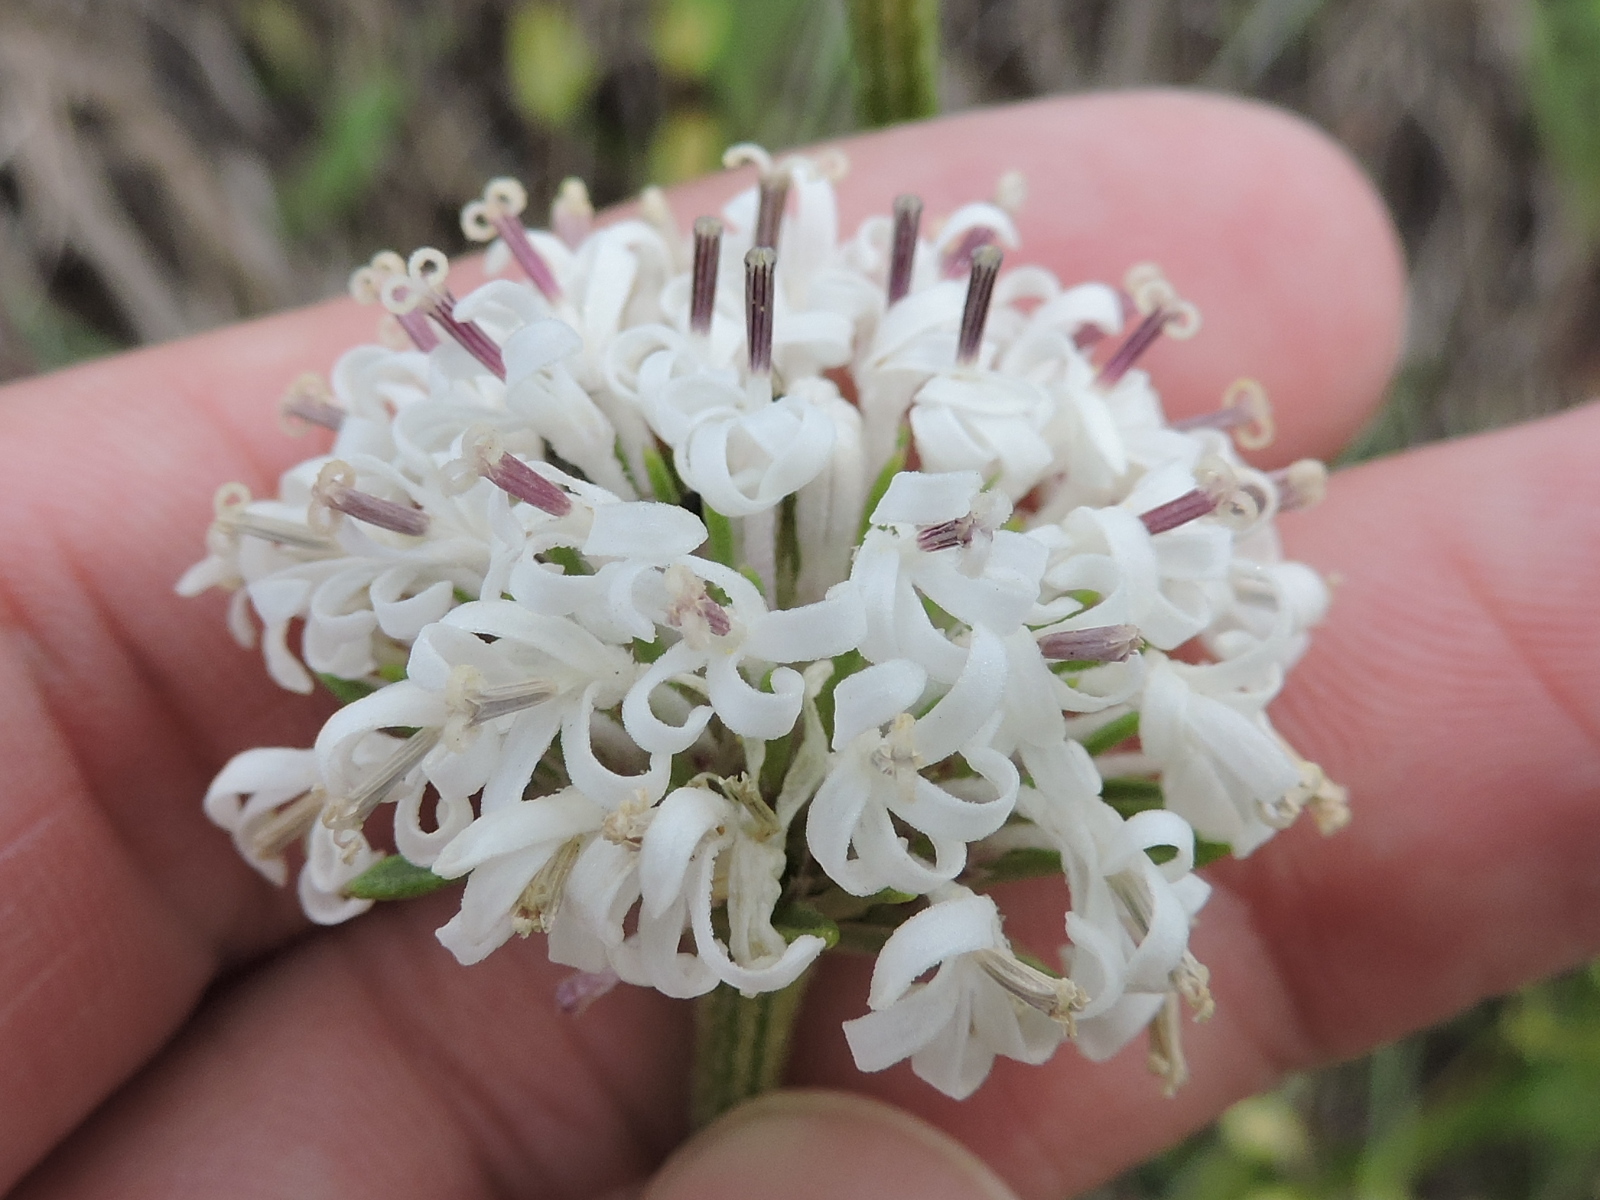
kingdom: Plantae
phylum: Tracheophyta
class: Magnoliopsida
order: Asterales
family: Asteraceae
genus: Marshallia
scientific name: Marshallia caespitosa
